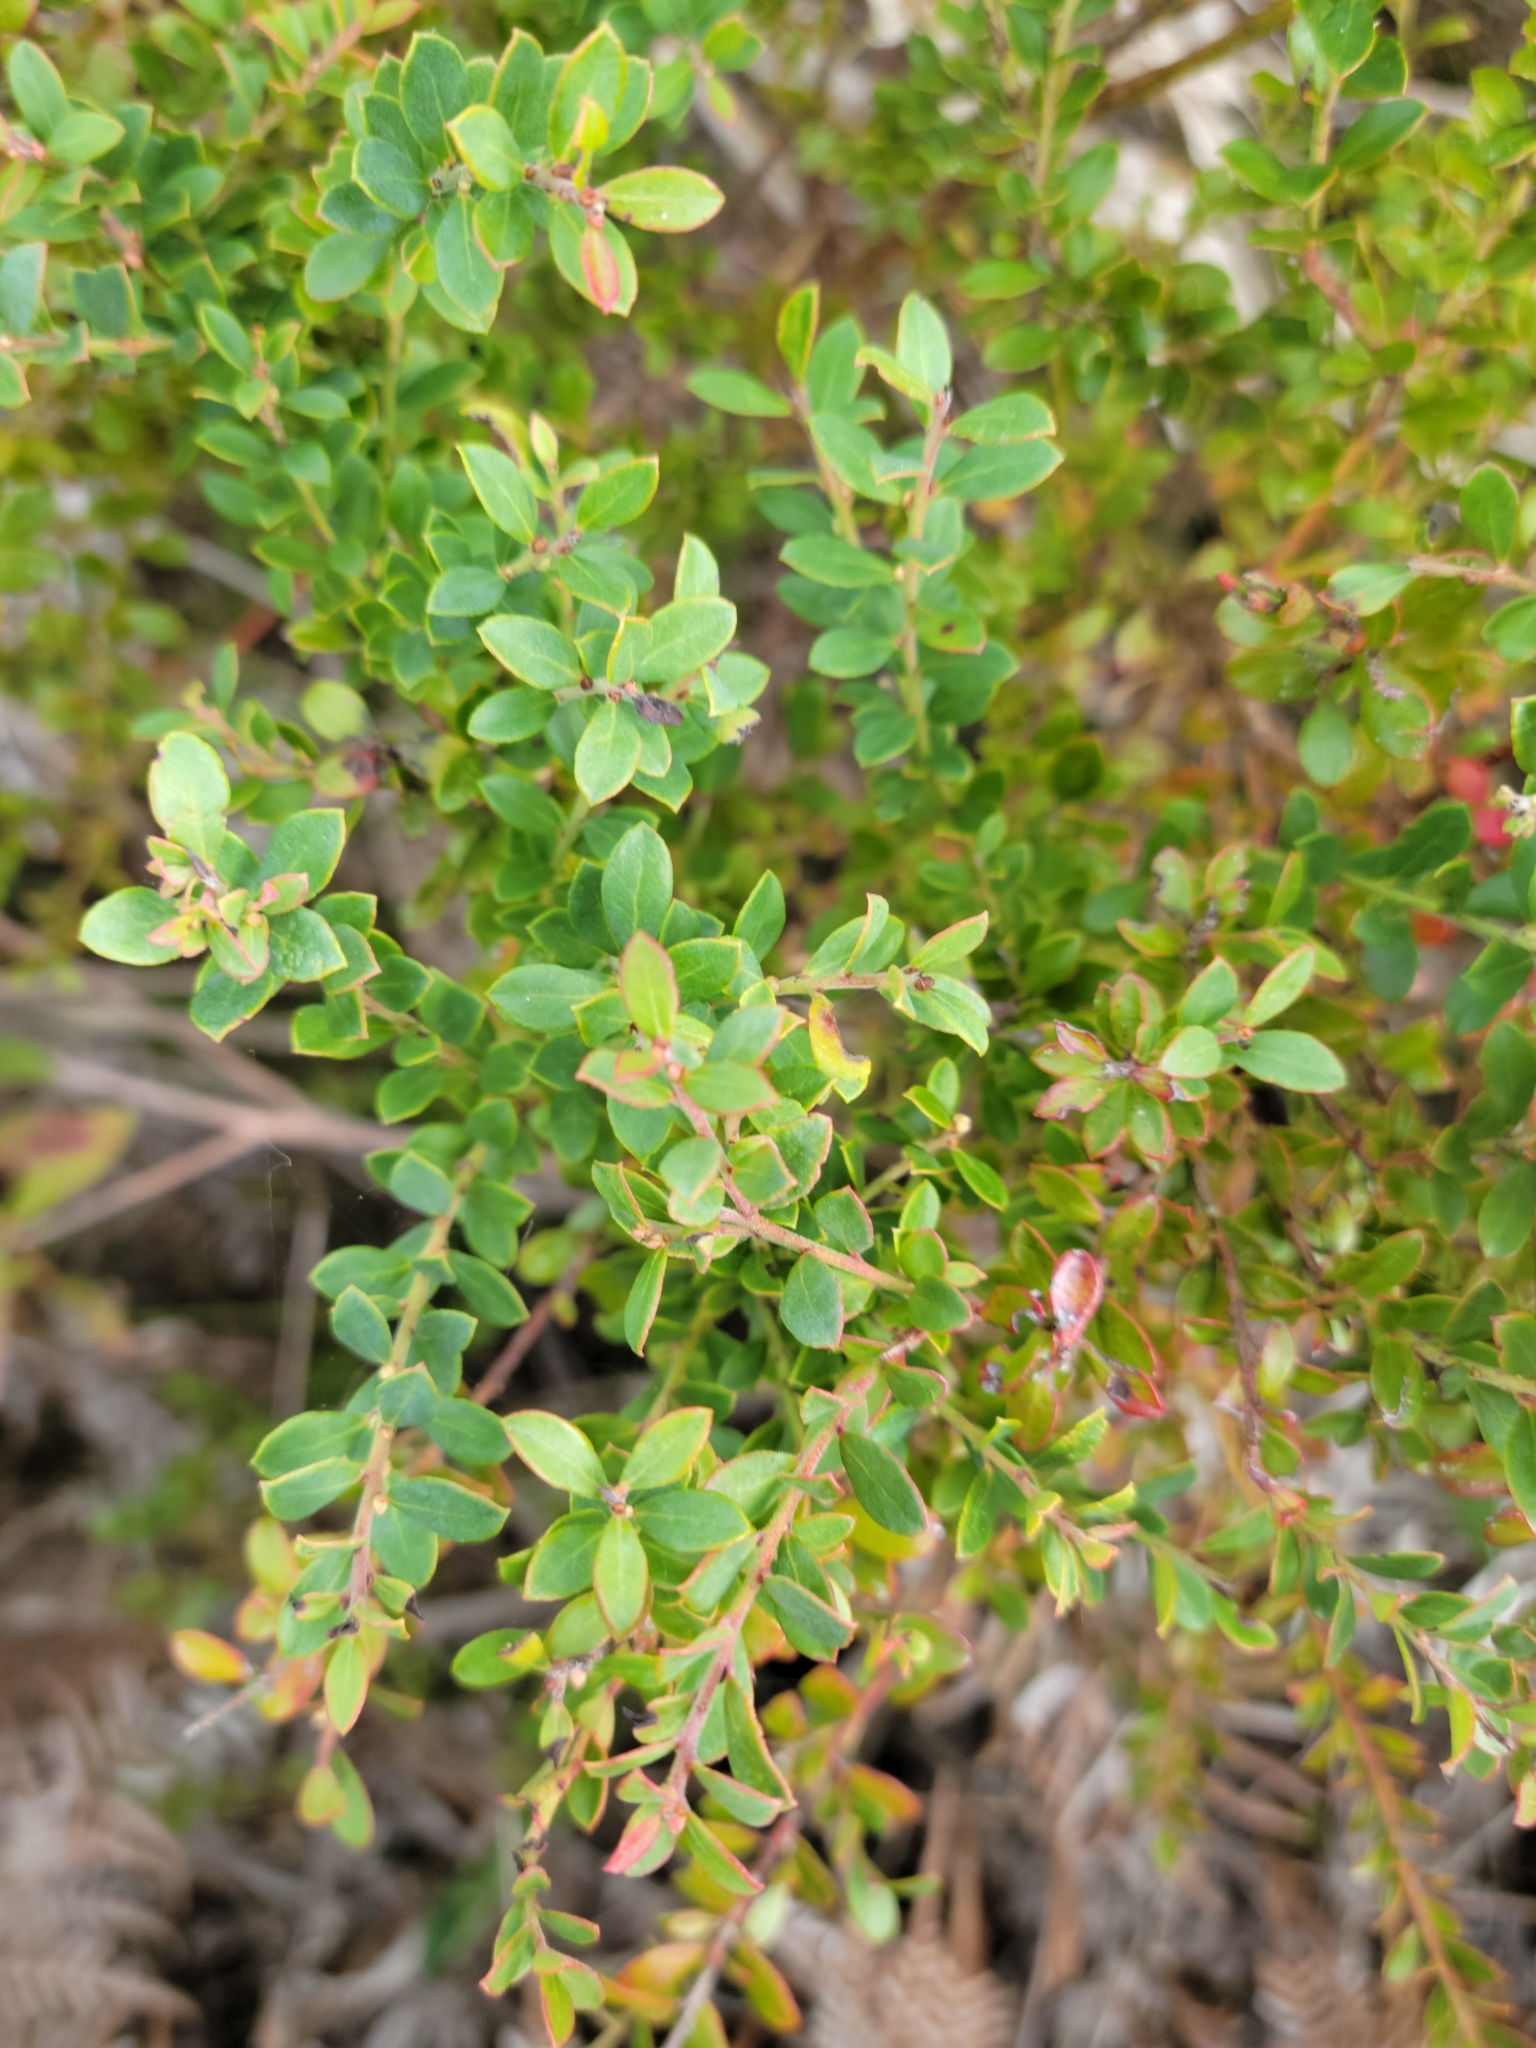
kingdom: Plantae
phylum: Tracheophyta
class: Magnoliopsida
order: Ericales
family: Ericaceae
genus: Vaccinium
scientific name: Vaccinium darrowii
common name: Darrow's blueberry
